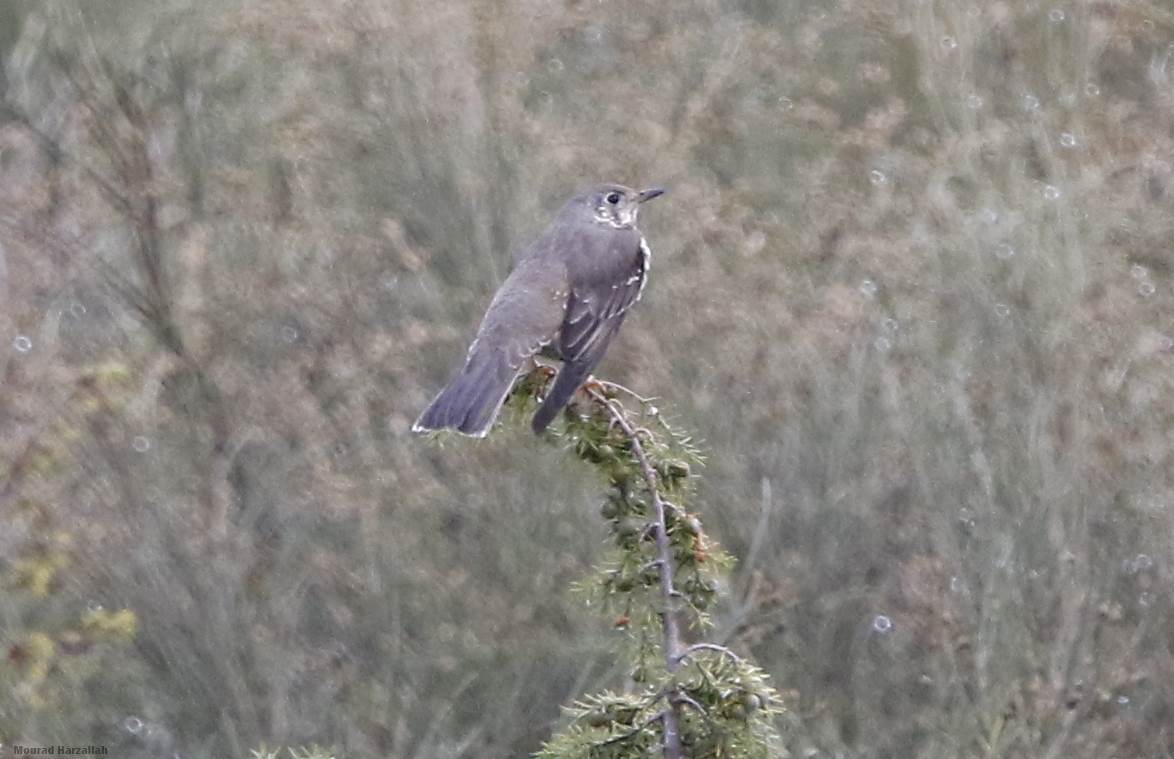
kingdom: Animalia
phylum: Chordata
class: Aves
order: Passeriformes
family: Turdidae
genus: Turdus
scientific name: Turdus viscivorus
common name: Mistle thrush
